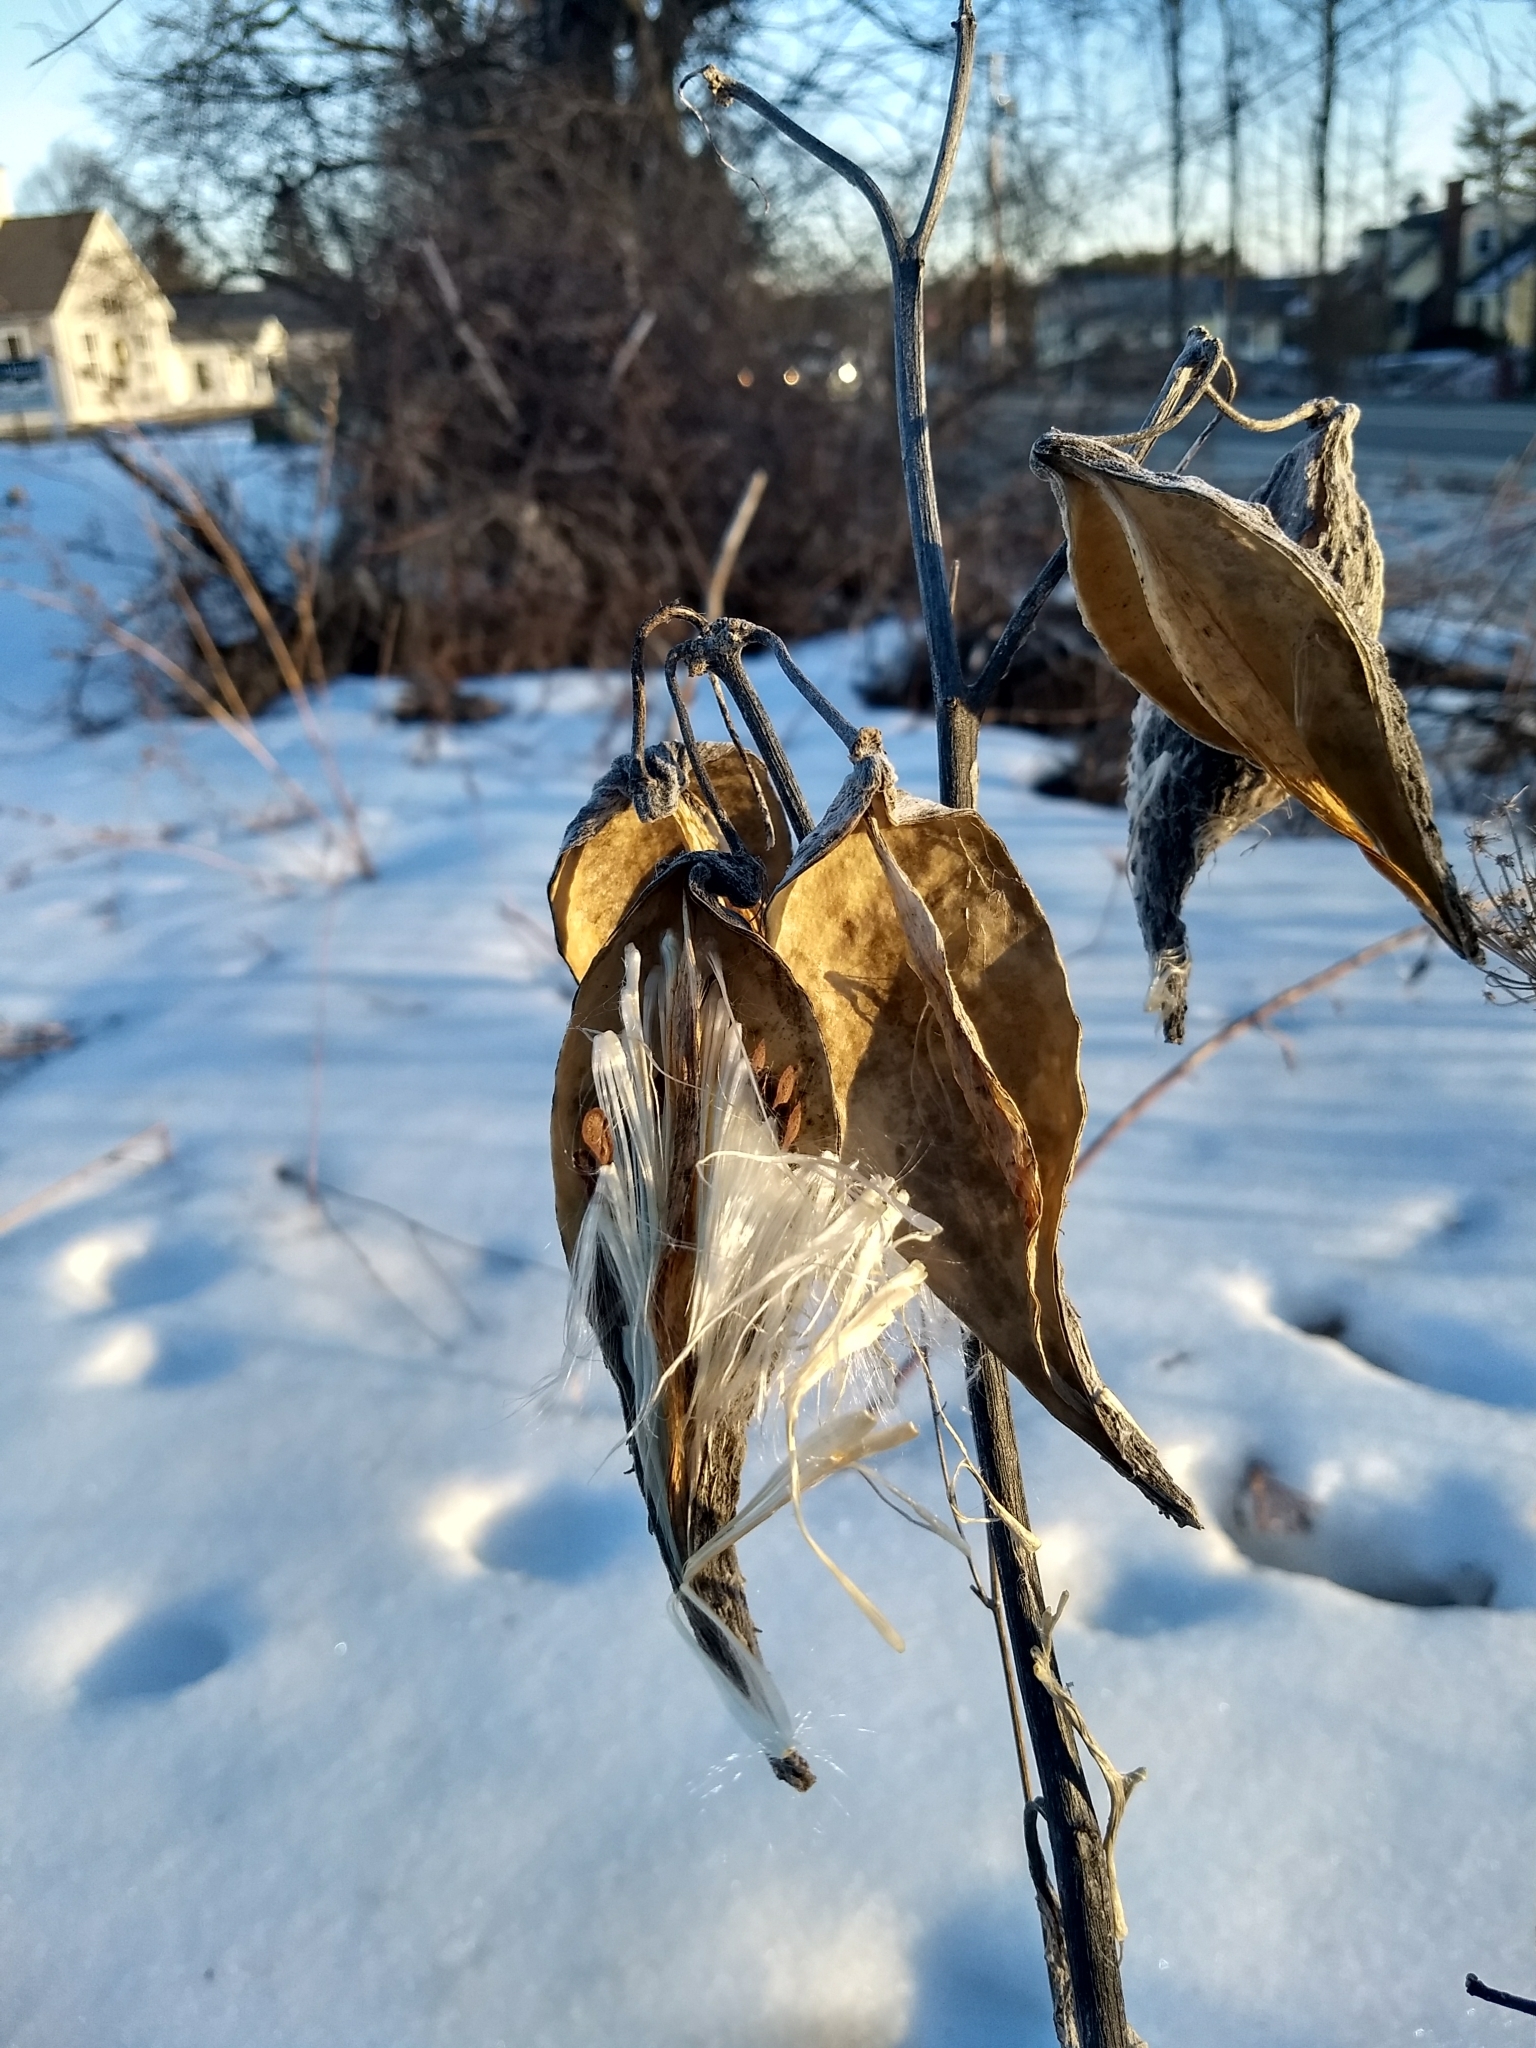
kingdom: Plantae
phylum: Tracheophyta
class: Magnoliopsida
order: Gentianales
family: Apocynaceae
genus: Asclepias
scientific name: Asclepias syriaca
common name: Common milkweed
